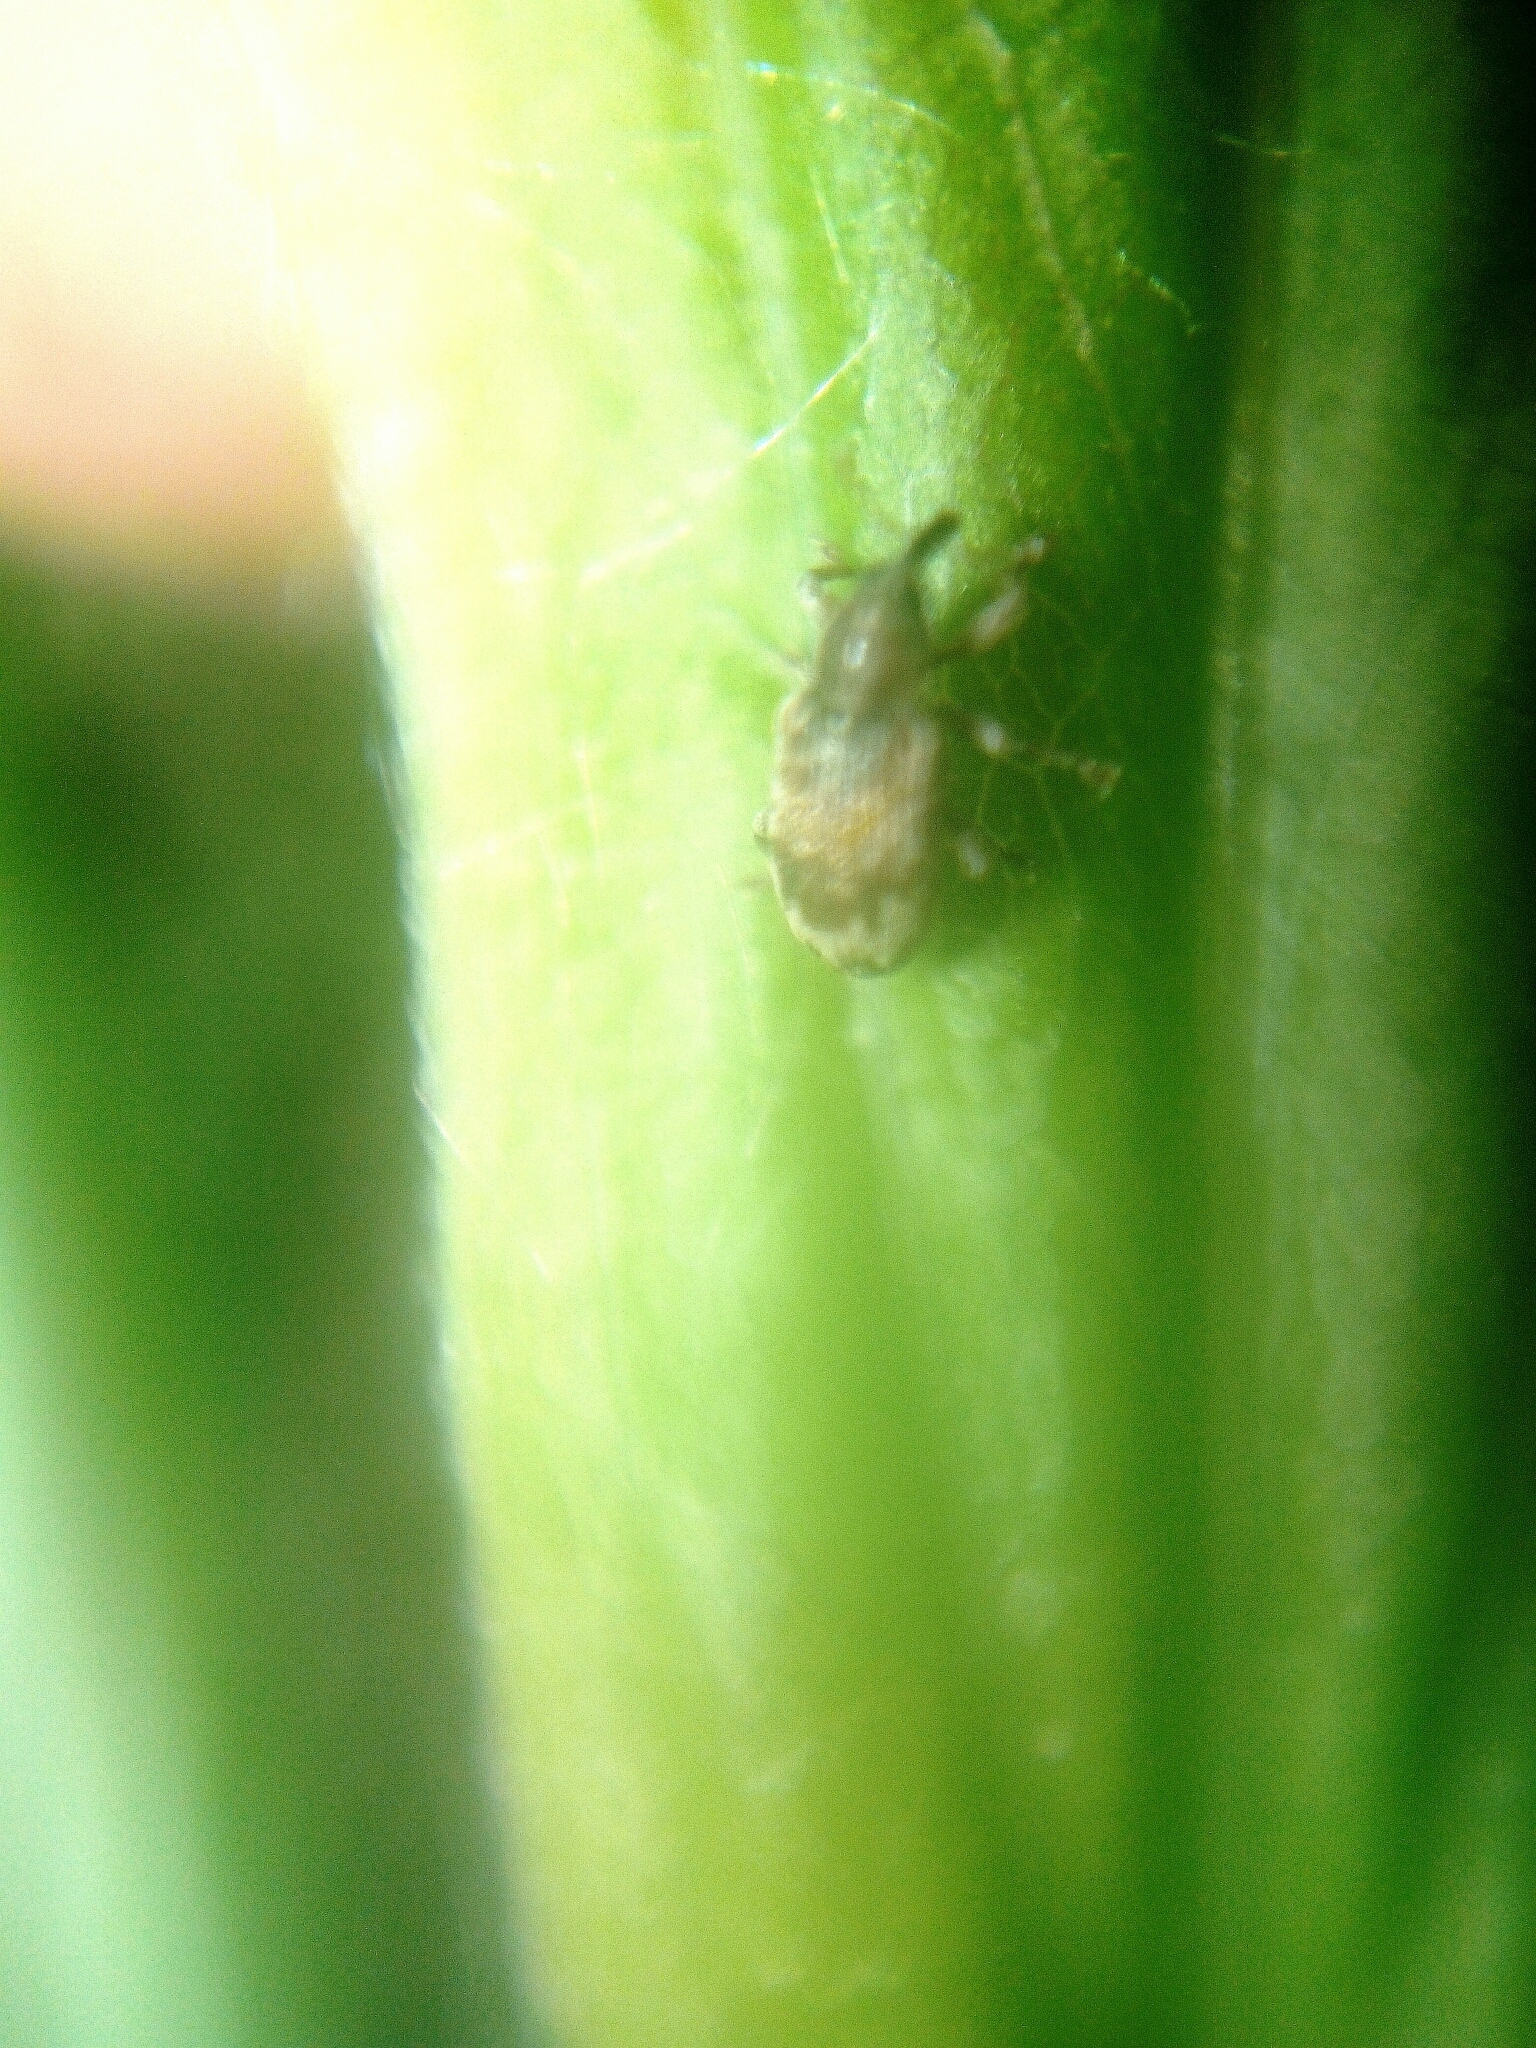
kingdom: Animalia
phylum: Arthropoda
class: Insecta
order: Coleoptera
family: Curculionidae
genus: Ellescus
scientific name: Ellescus infirmus
